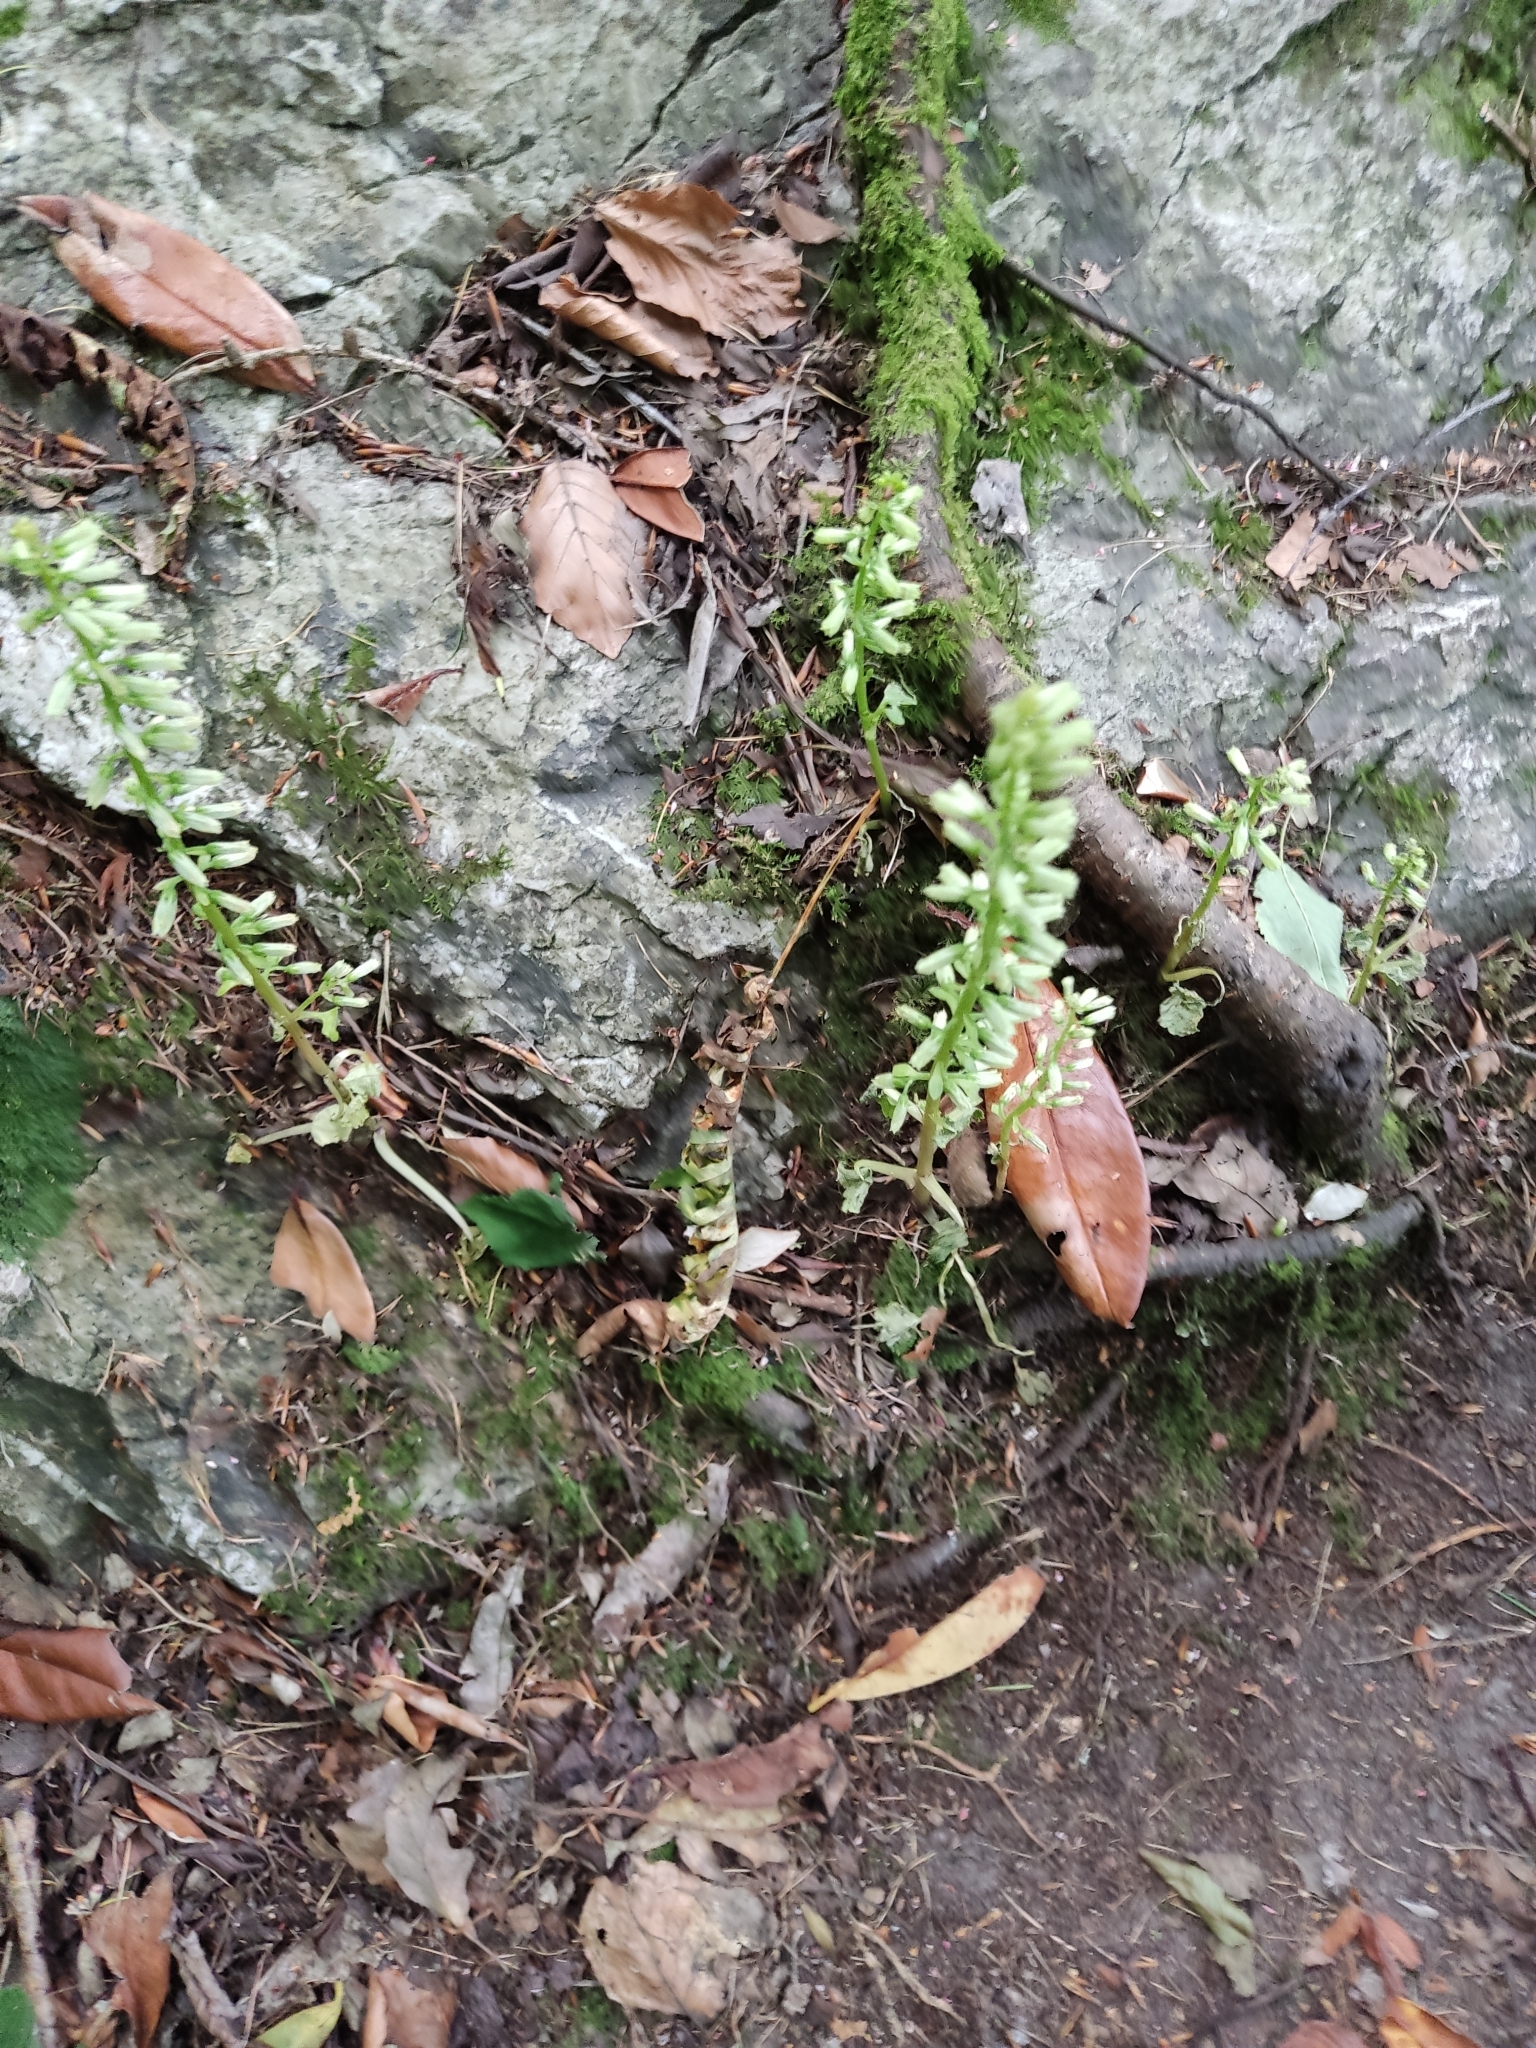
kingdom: Plantae
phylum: Tracheophyta
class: Magnoliopsida
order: Saxifragales
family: Crassulaceae
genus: Umbilicus
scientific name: Umbilicus rupestris
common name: Navelwort
